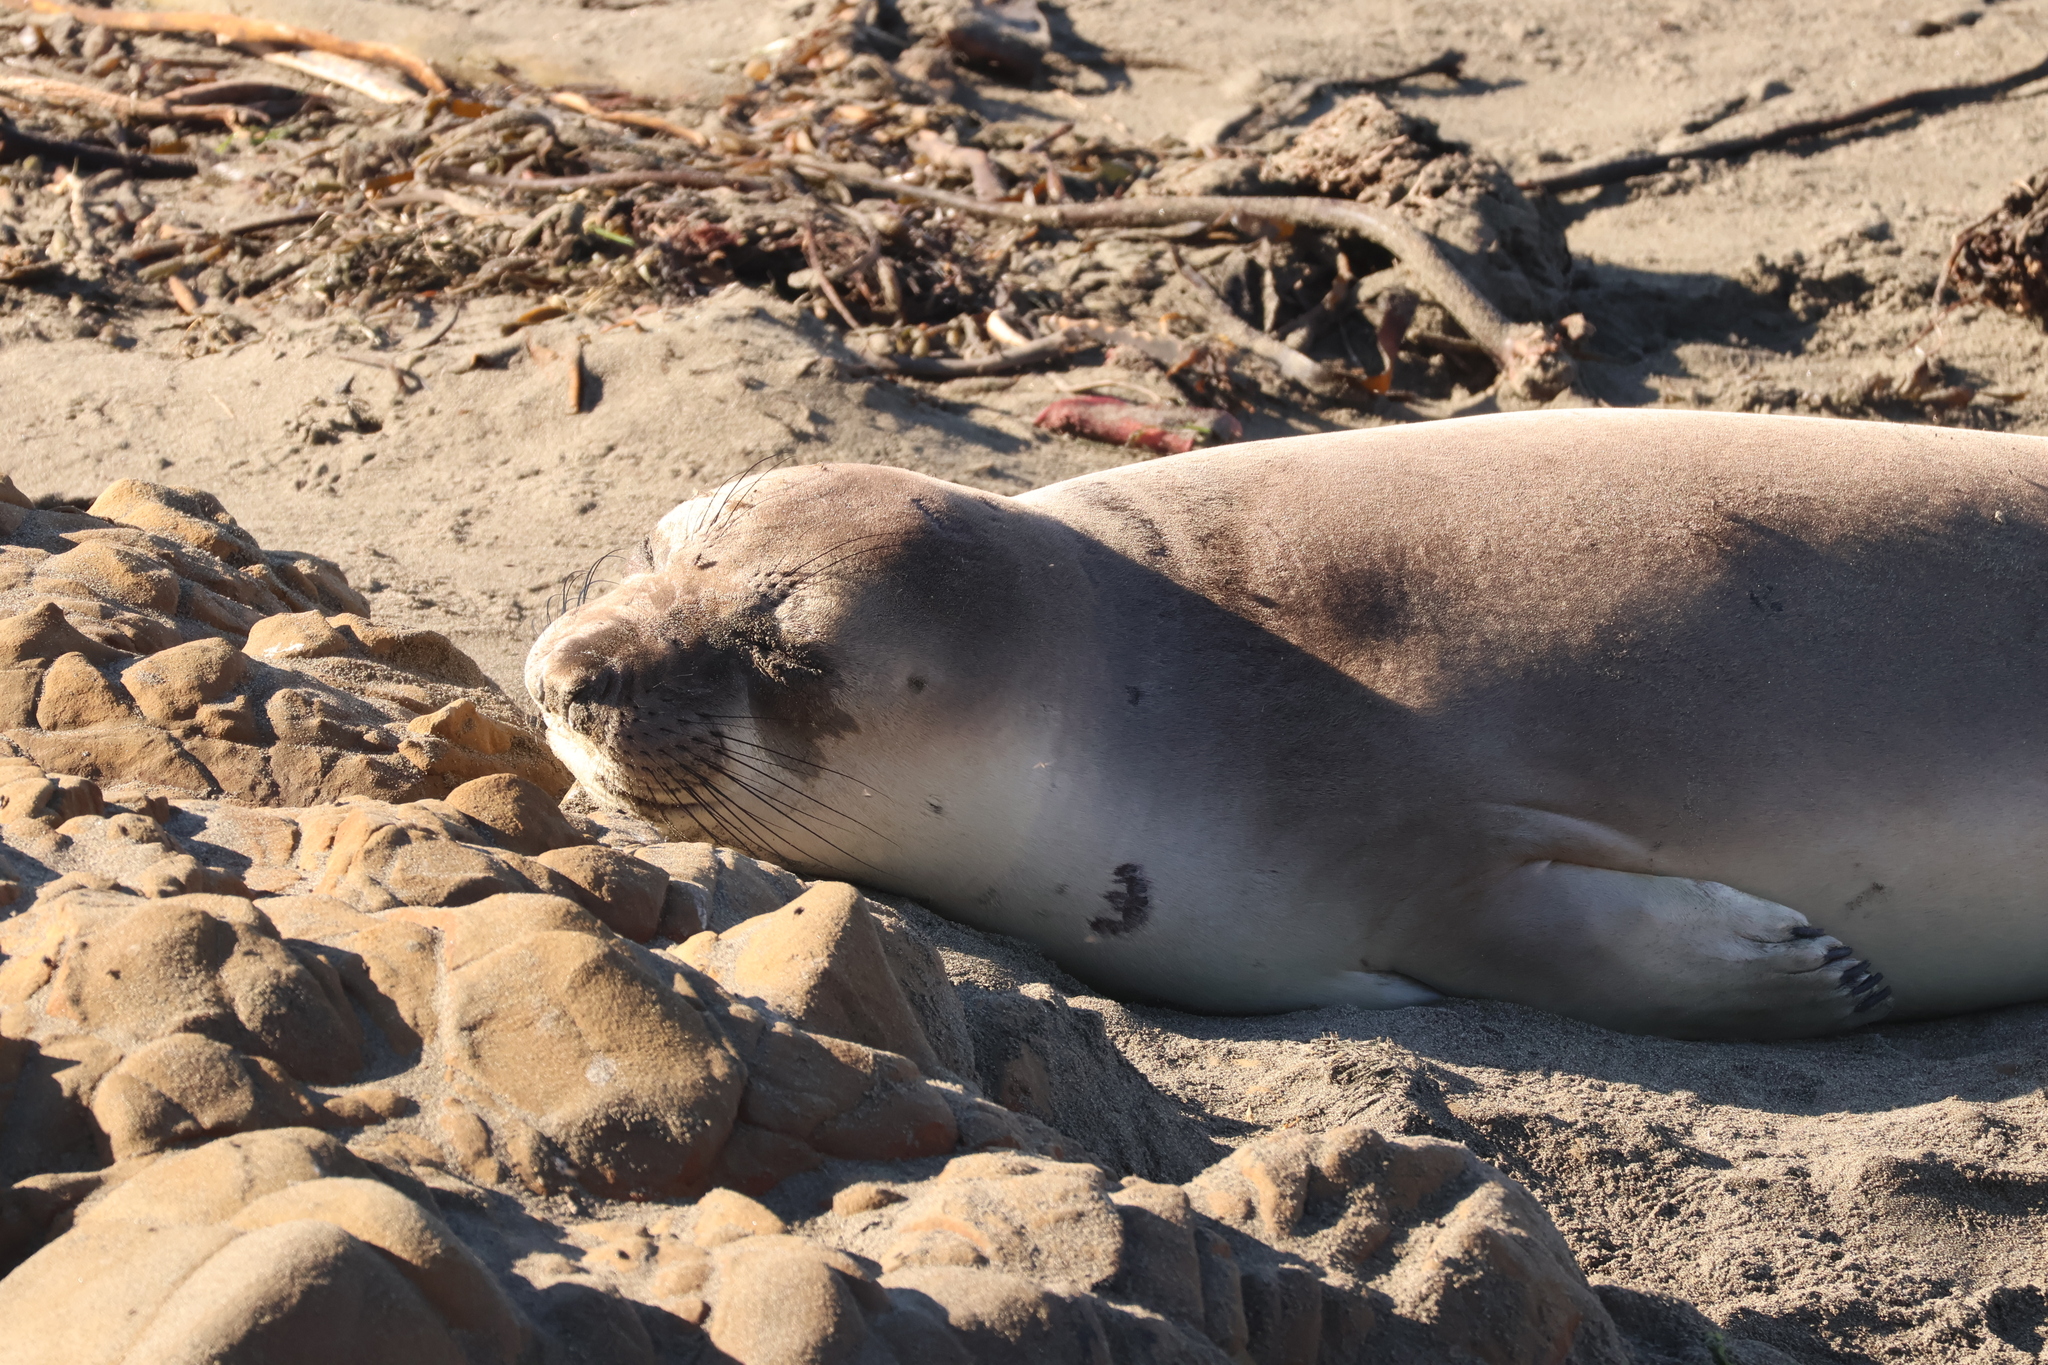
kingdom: Animalia
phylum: Chordata
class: Mammalia
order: Carnivora
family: Phocidae
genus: Mirounga
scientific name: Mirounga angustirostris
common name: Northern elephant seal
